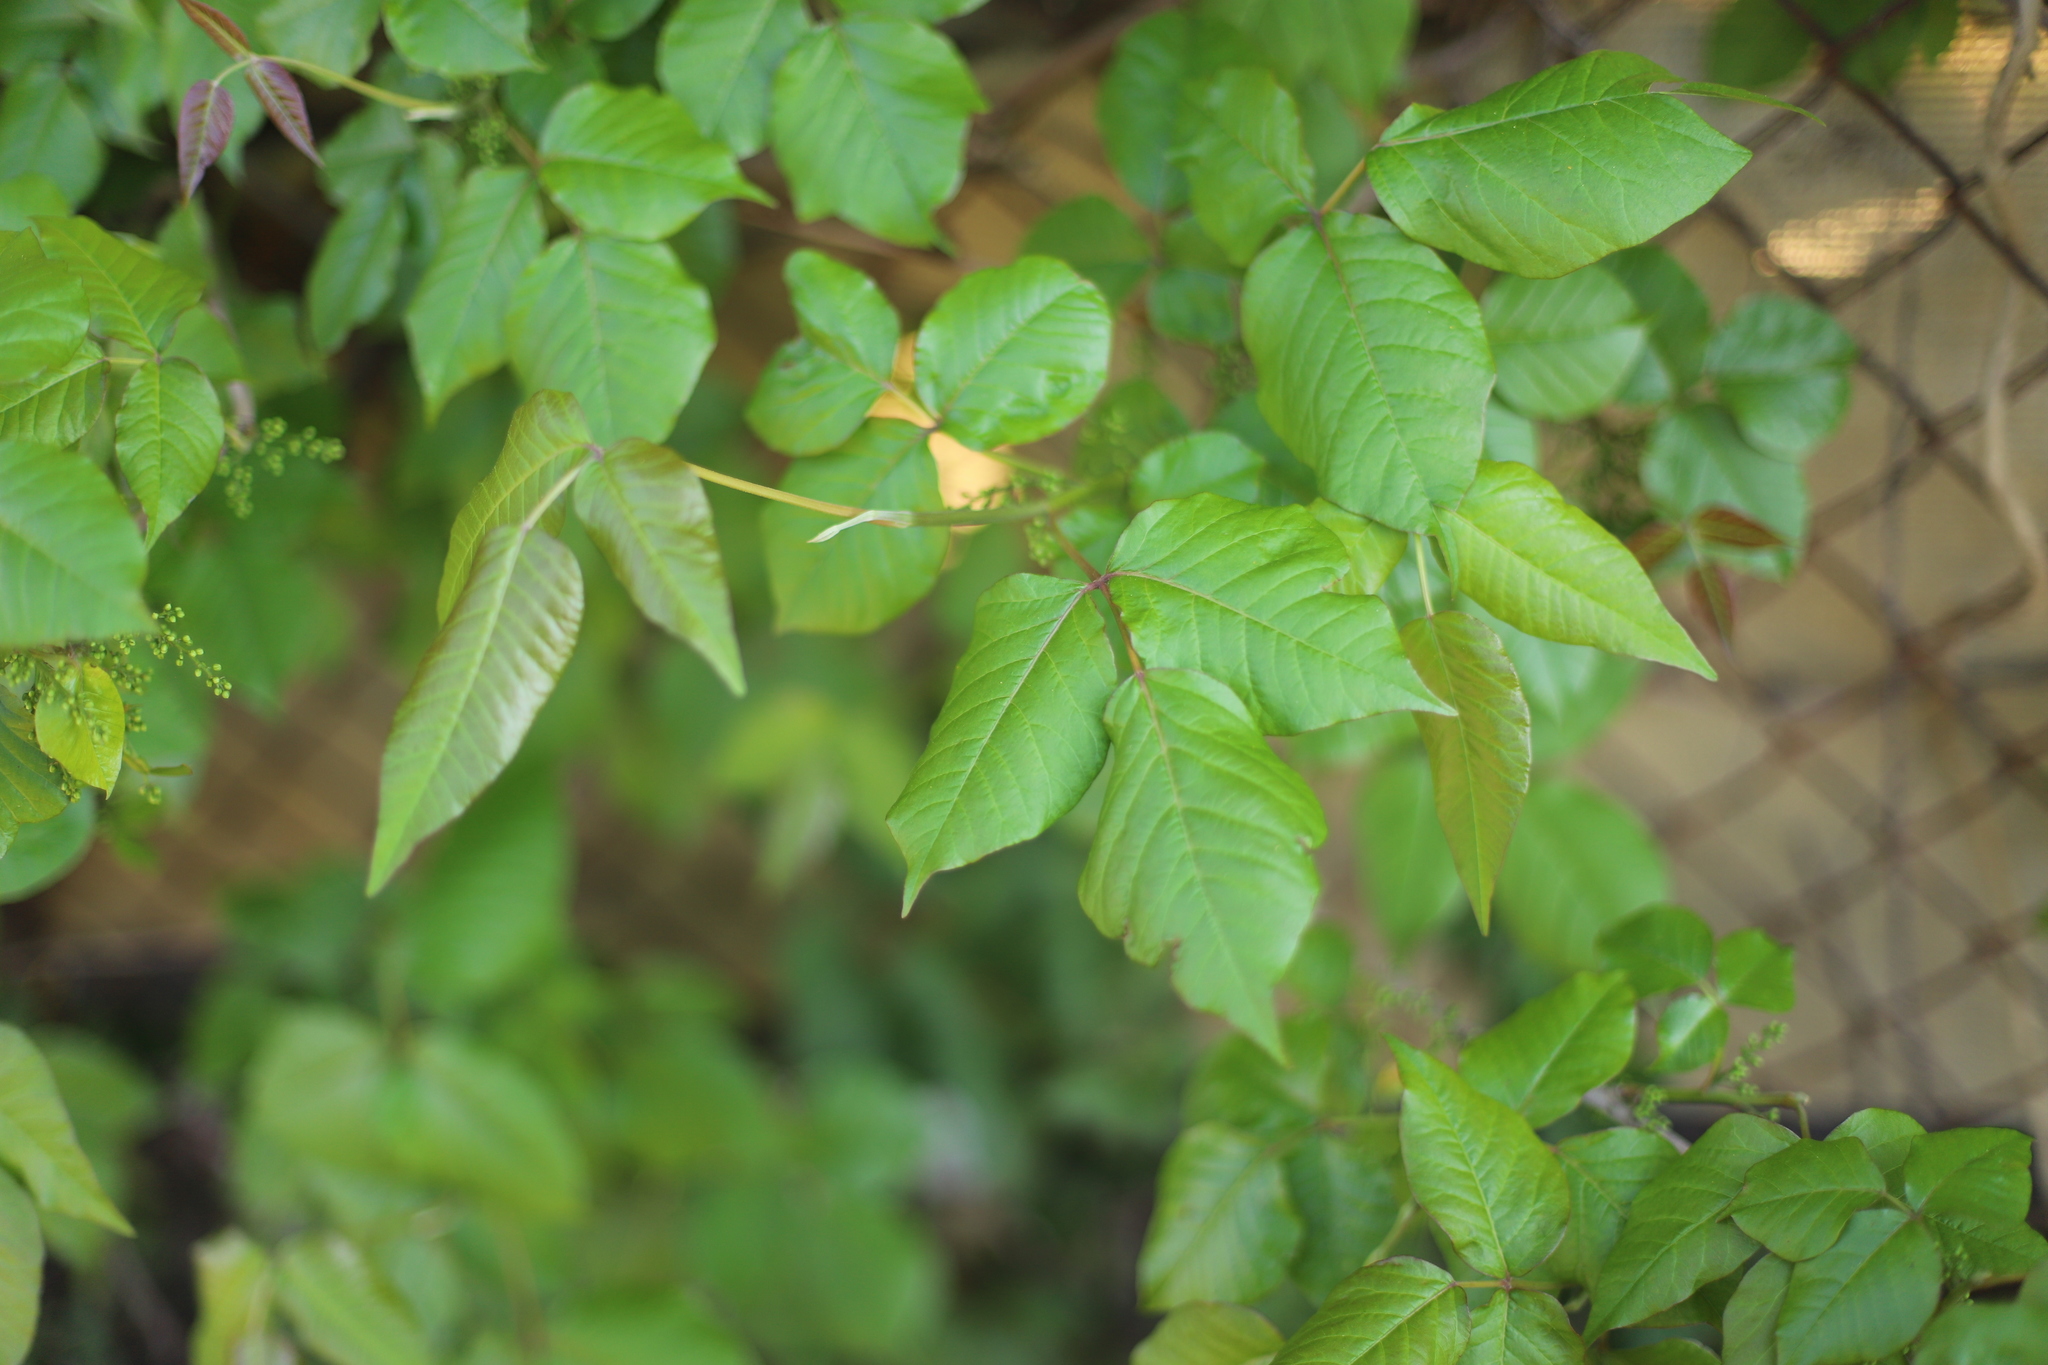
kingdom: Plantae
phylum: Tracheophyta
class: Magnoliopsida
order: Sapindales
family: Anacardiaceae
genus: Toxicodendron
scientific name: Toxicodendron radicans
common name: Poison ivy
